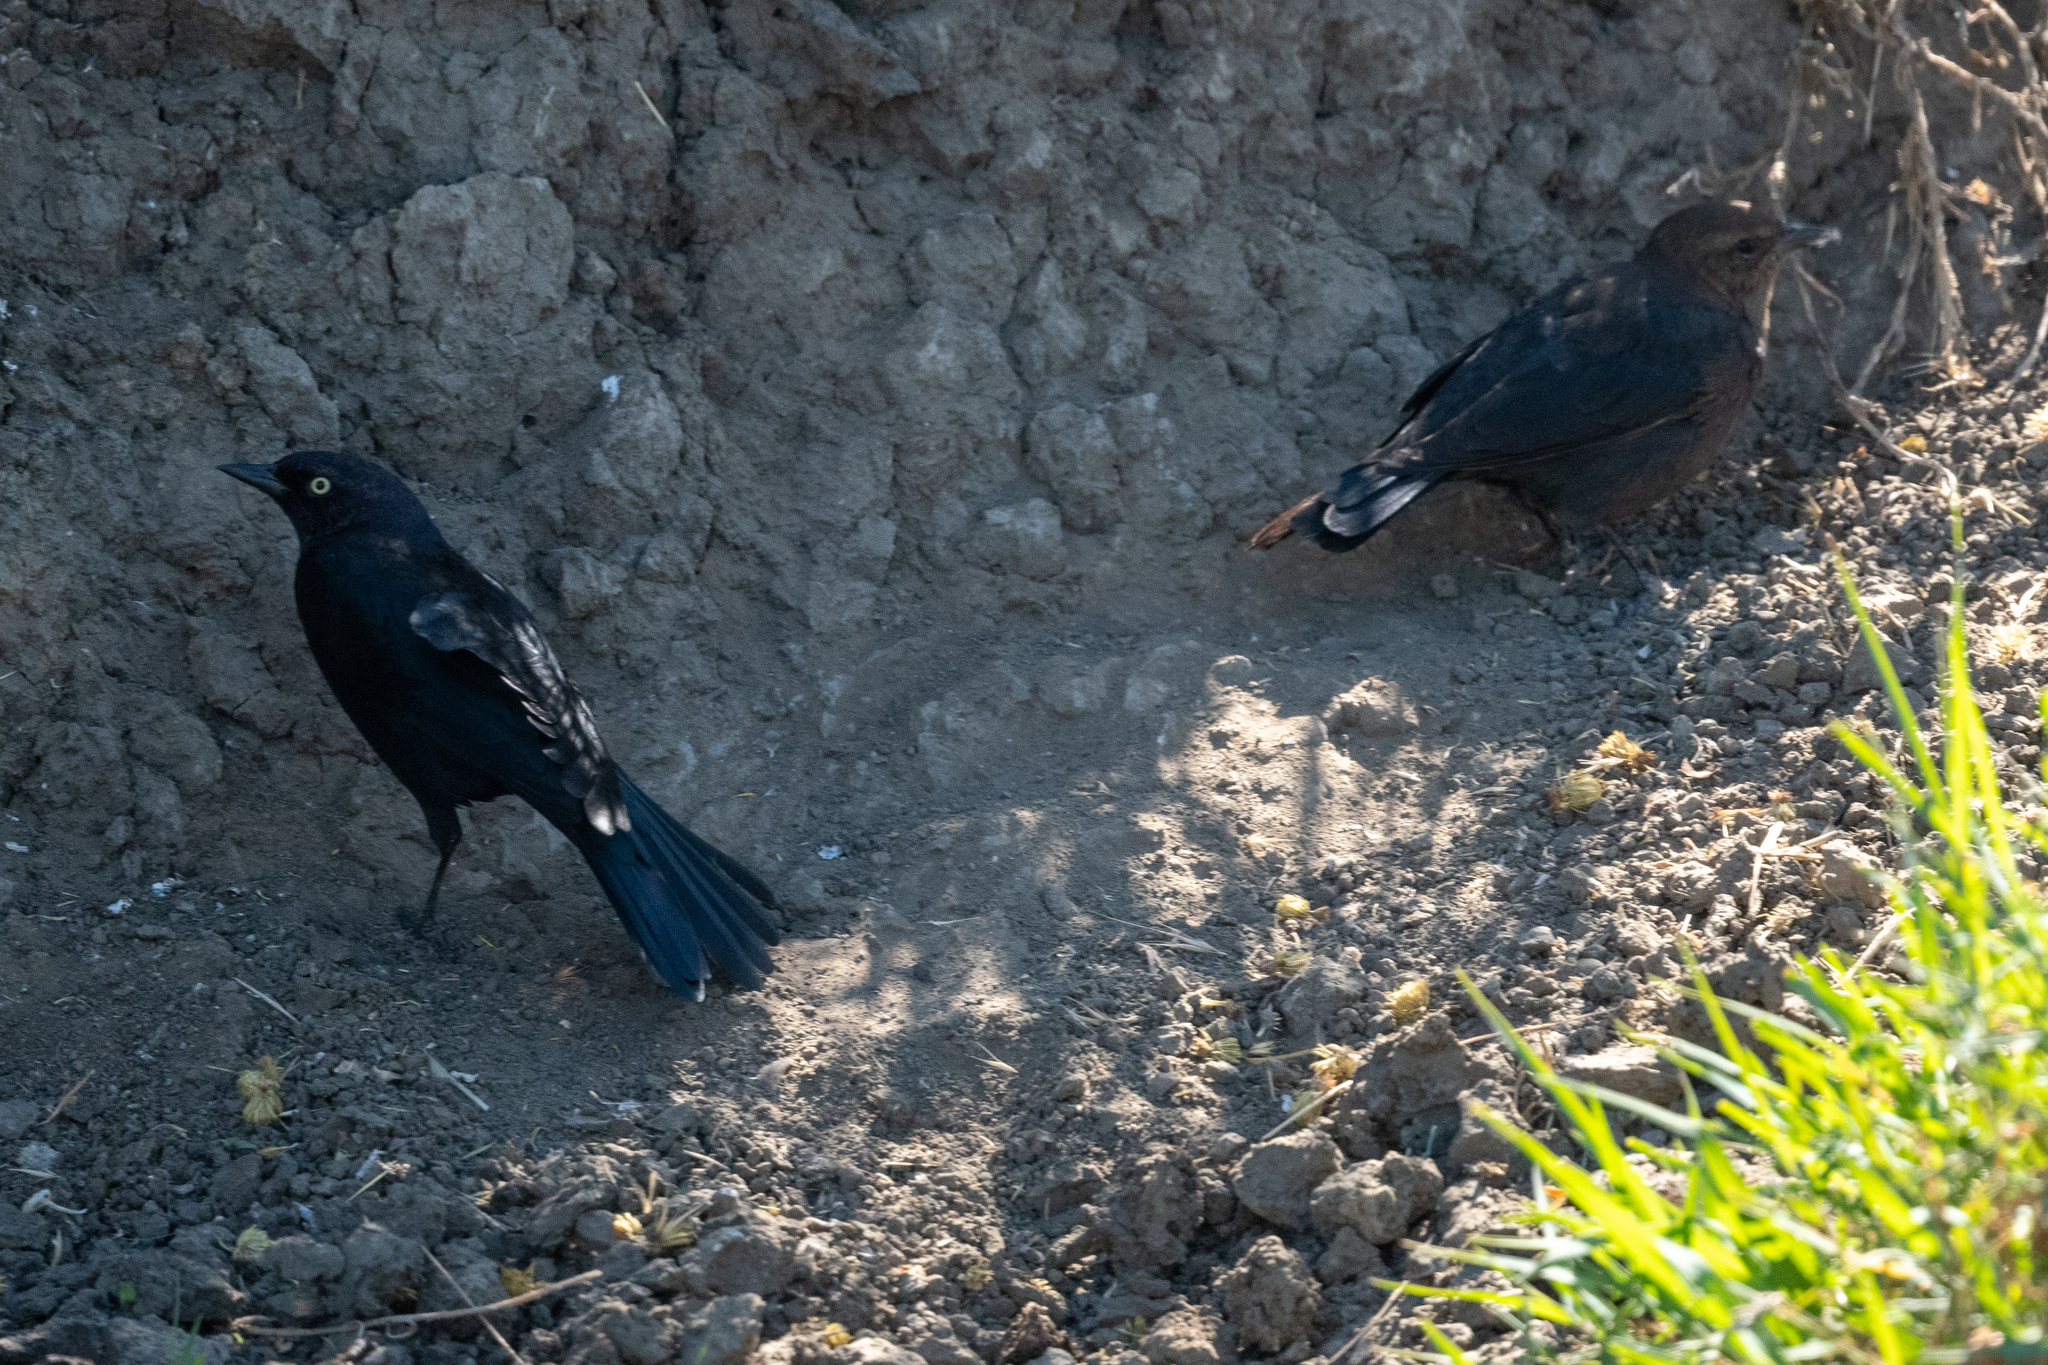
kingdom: Animalia
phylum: Chordata
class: Aves
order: Passeriformes
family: Icteridae
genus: Euphagus
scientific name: Euphagus cyanocephalus
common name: Brewer's blackbird
